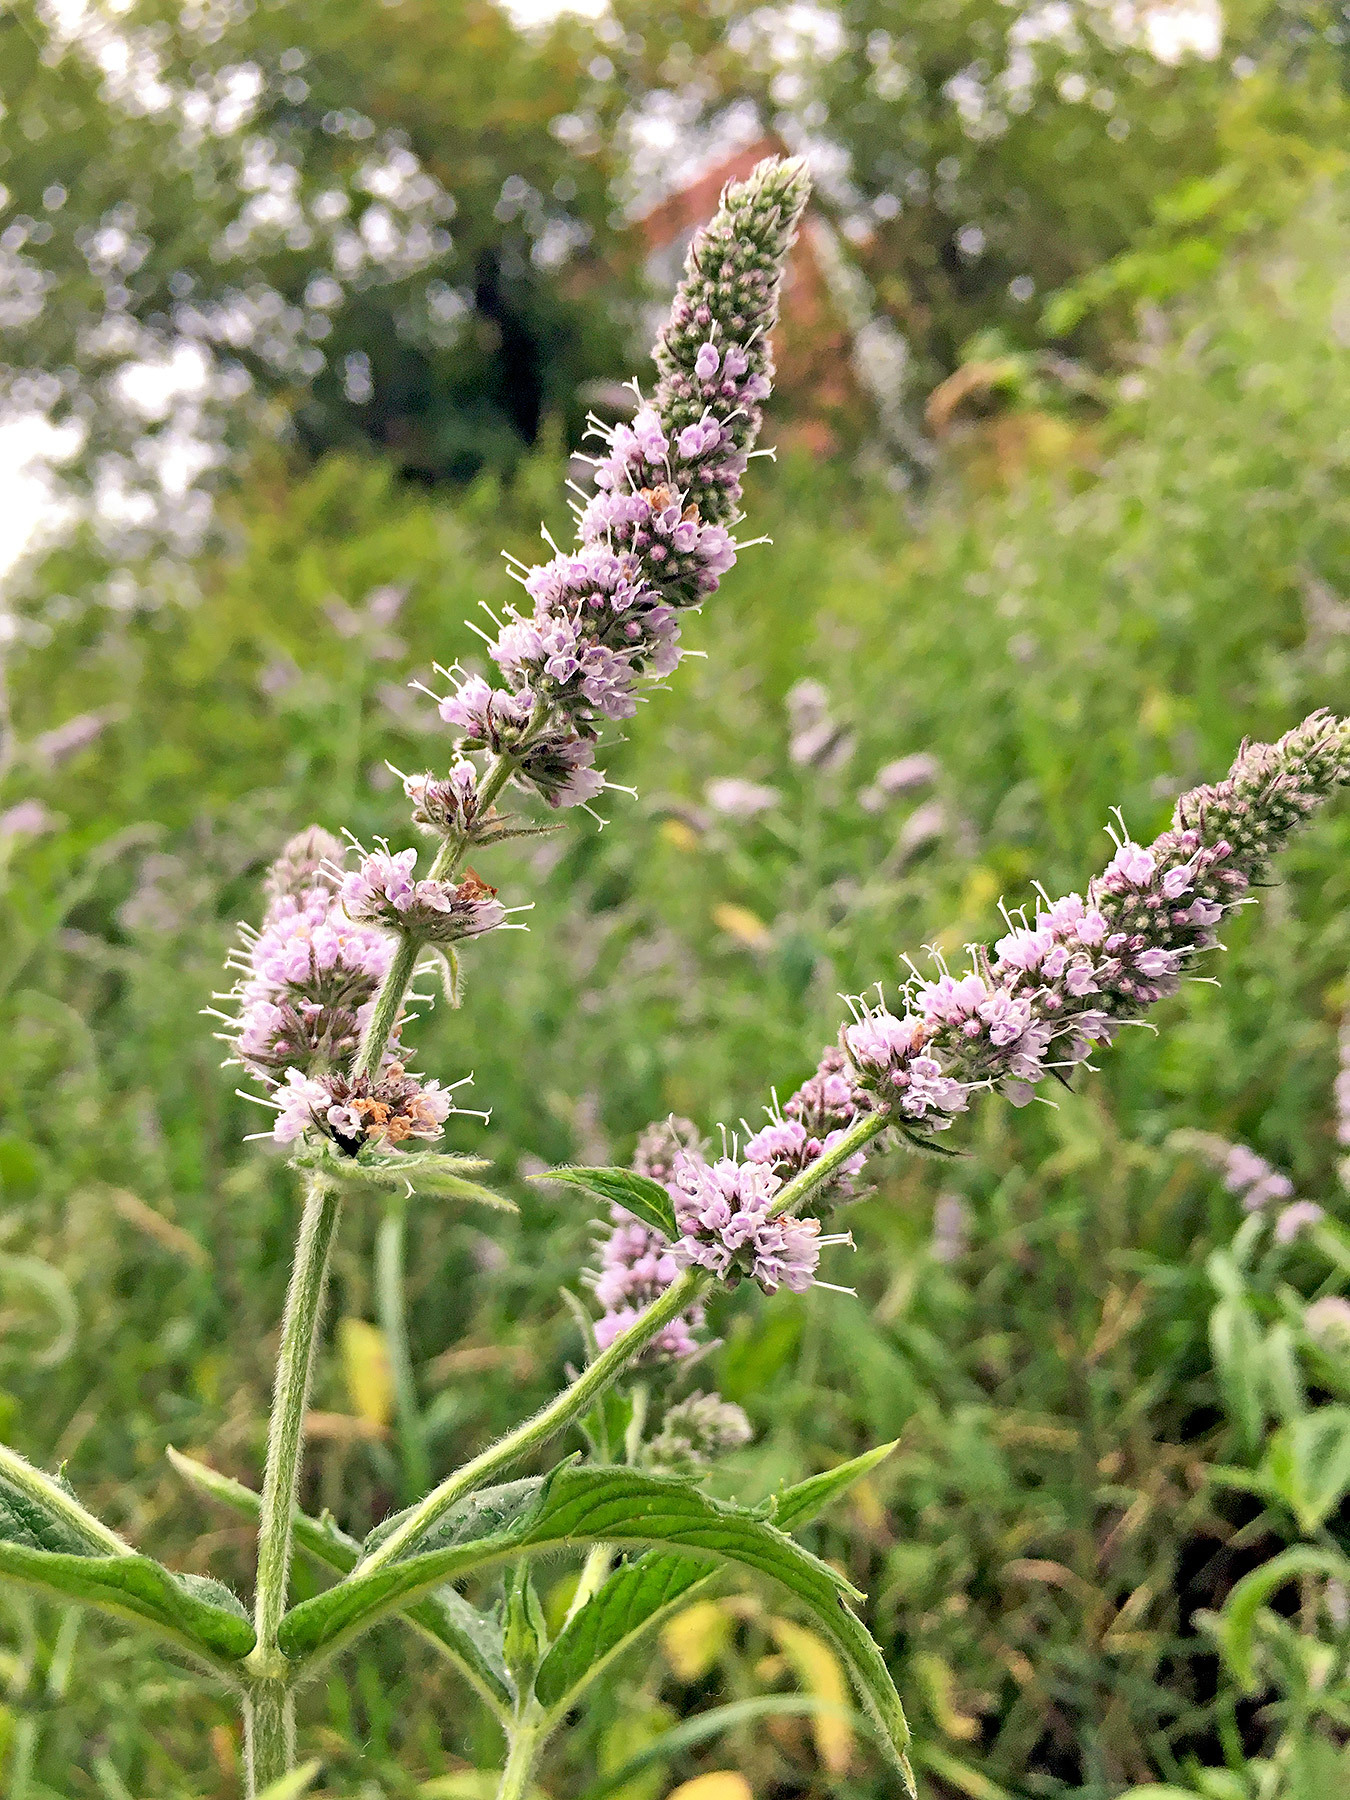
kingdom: Plantae
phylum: Tracheophyta
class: Magnoliopsida
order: Lamiales
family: Lamiaceae
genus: Mentha
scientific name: Mentha longifolia
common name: Horse mint
